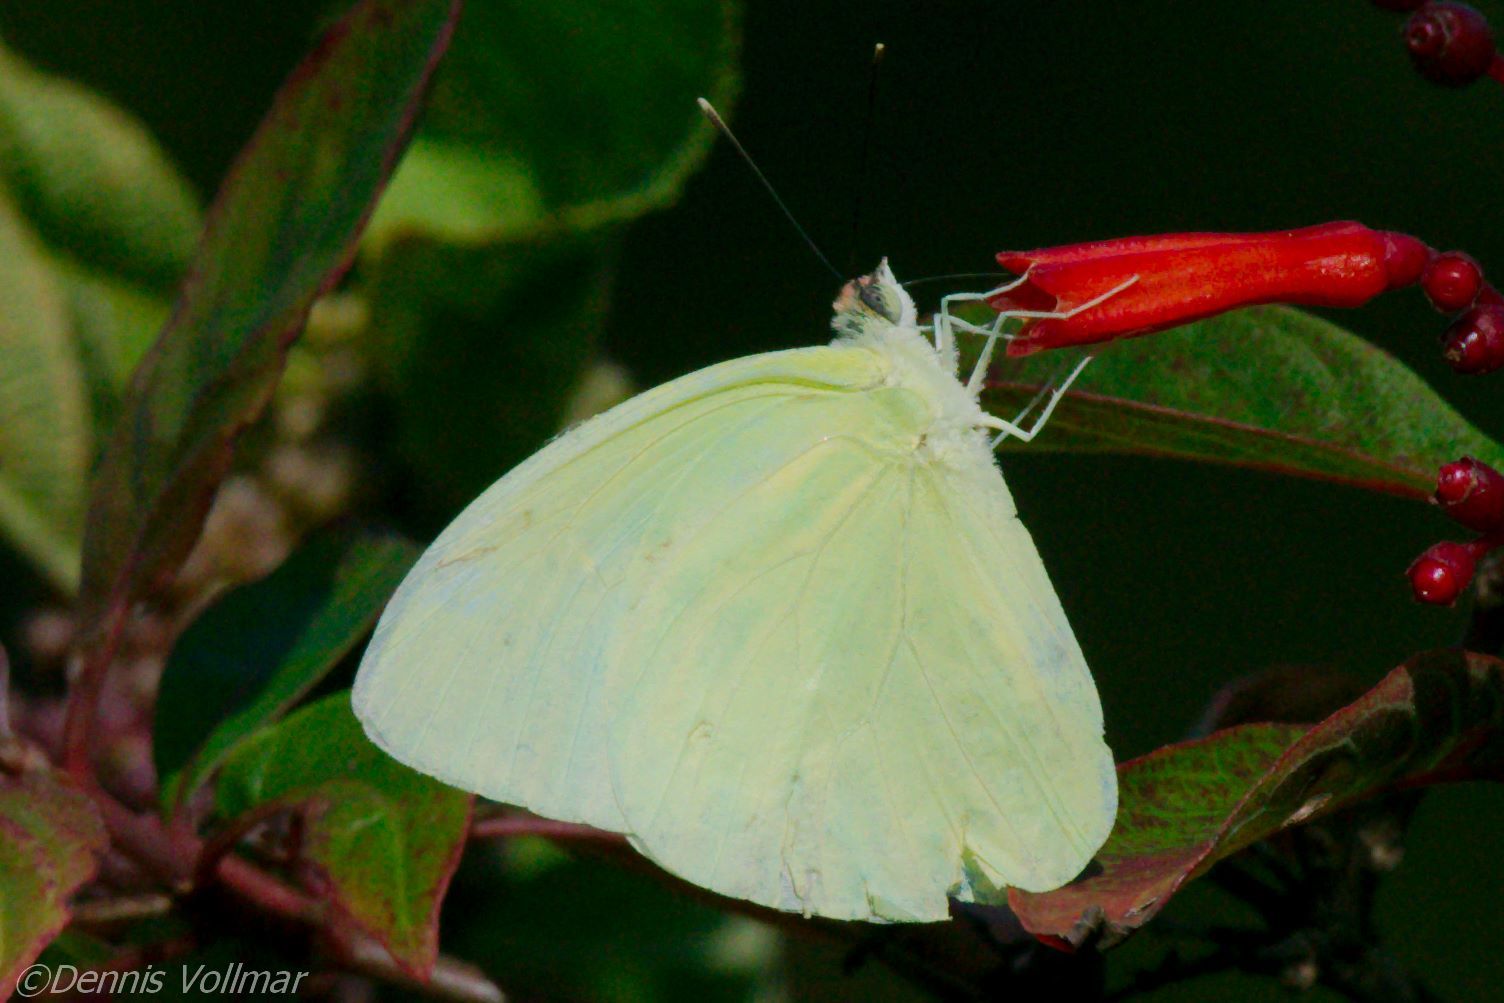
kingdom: Animalia
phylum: Arthropoda
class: Insecta
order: Lepidoptera
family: Pieridae
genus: Aphrissa
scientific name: Aphrissa statira
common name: Statira sulphur
